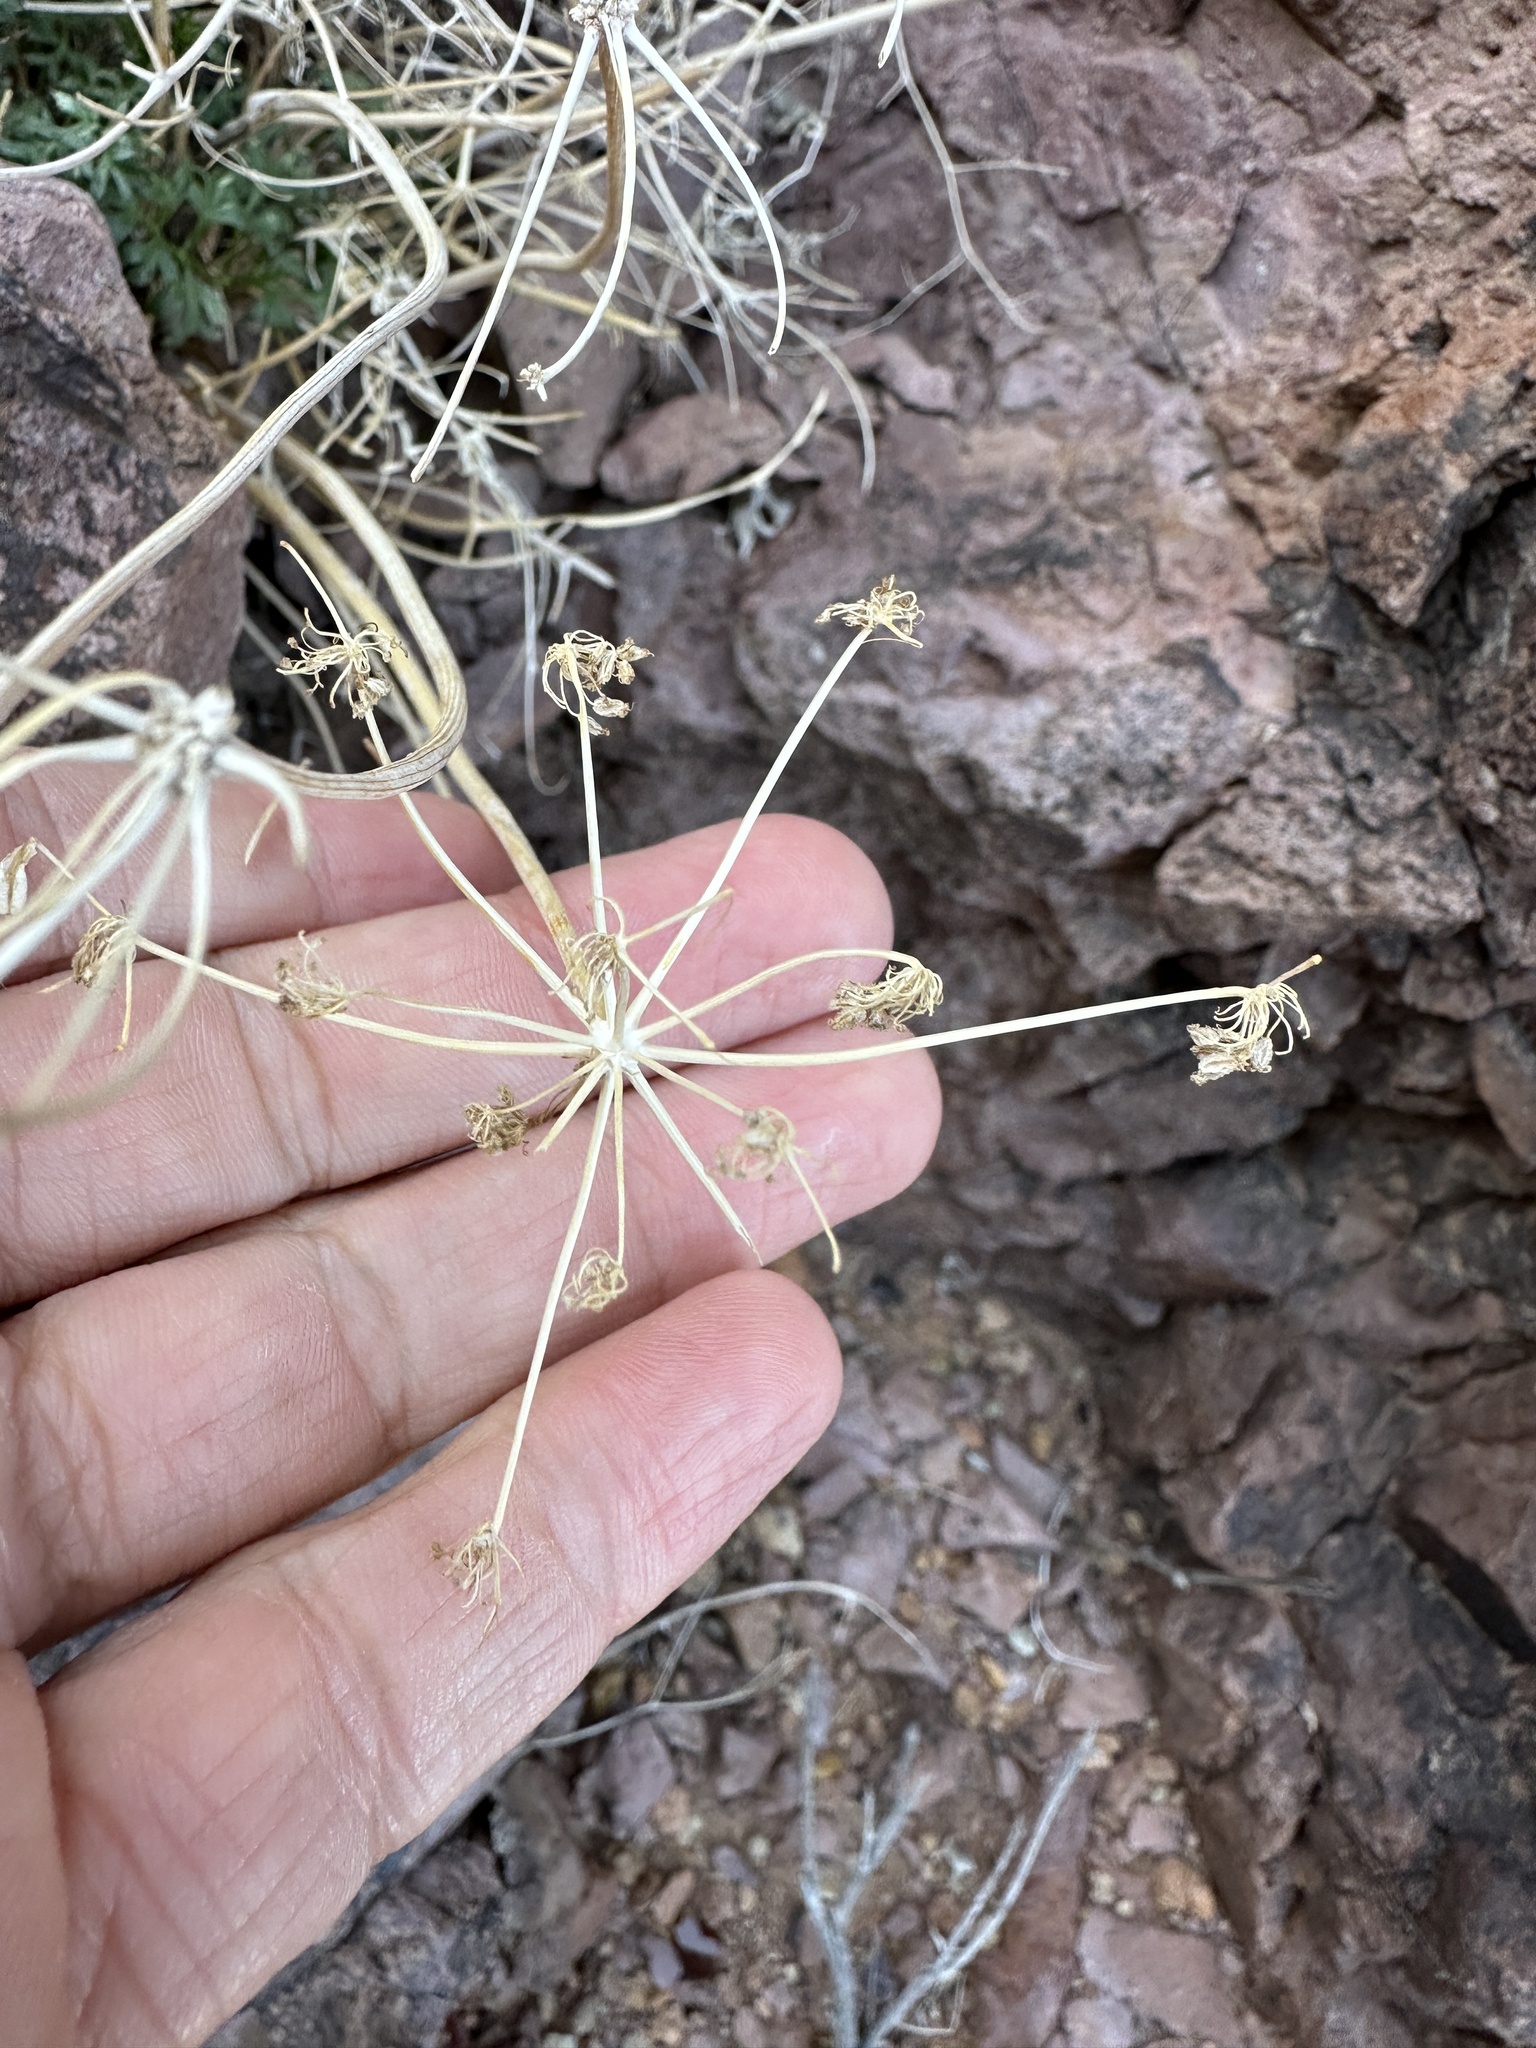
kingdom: Plantae
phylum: Tracheophyta
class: Magnoliopsida
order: Apiales
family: Apiaceae
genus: Aulospermum
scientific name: Aulospermum panamintense
